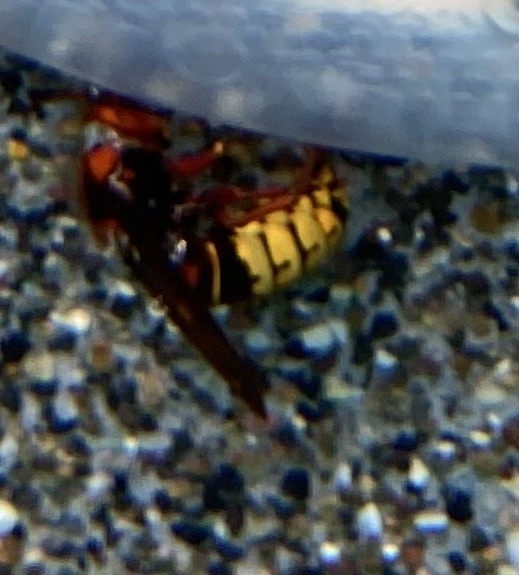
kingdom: Animalia
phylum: Arthropoda
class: Insecta
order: Hymenoptera
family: Vespidae
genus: Vespa
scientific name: Vespa crabro
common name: Hornet
